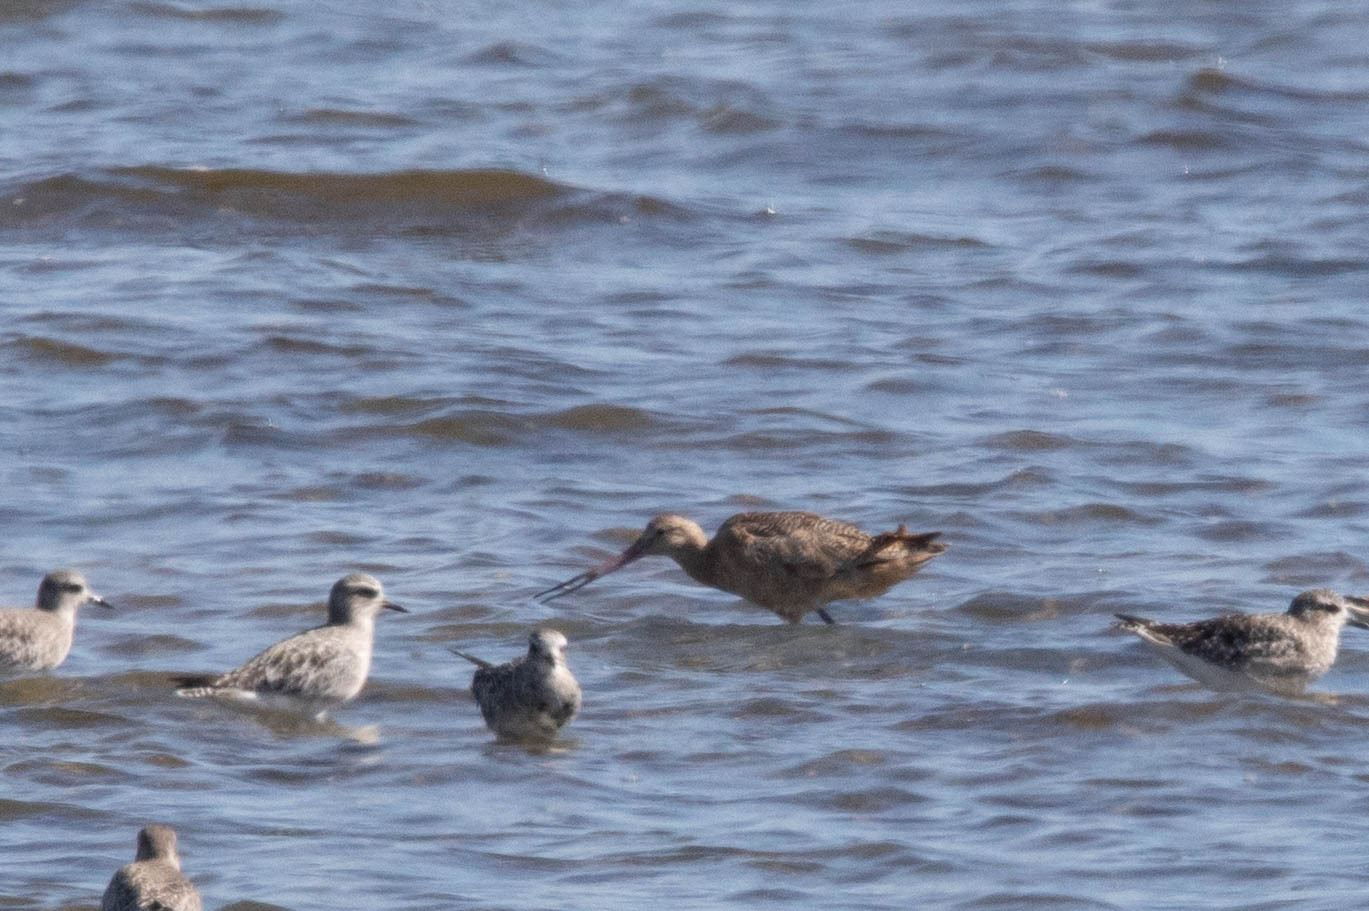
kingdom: Animalia
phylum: Chordata
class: Aves
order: Charadriiformes
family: Scolopacidae
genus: Limosa
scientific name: Limosa fedoa
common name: Marbled godwit
